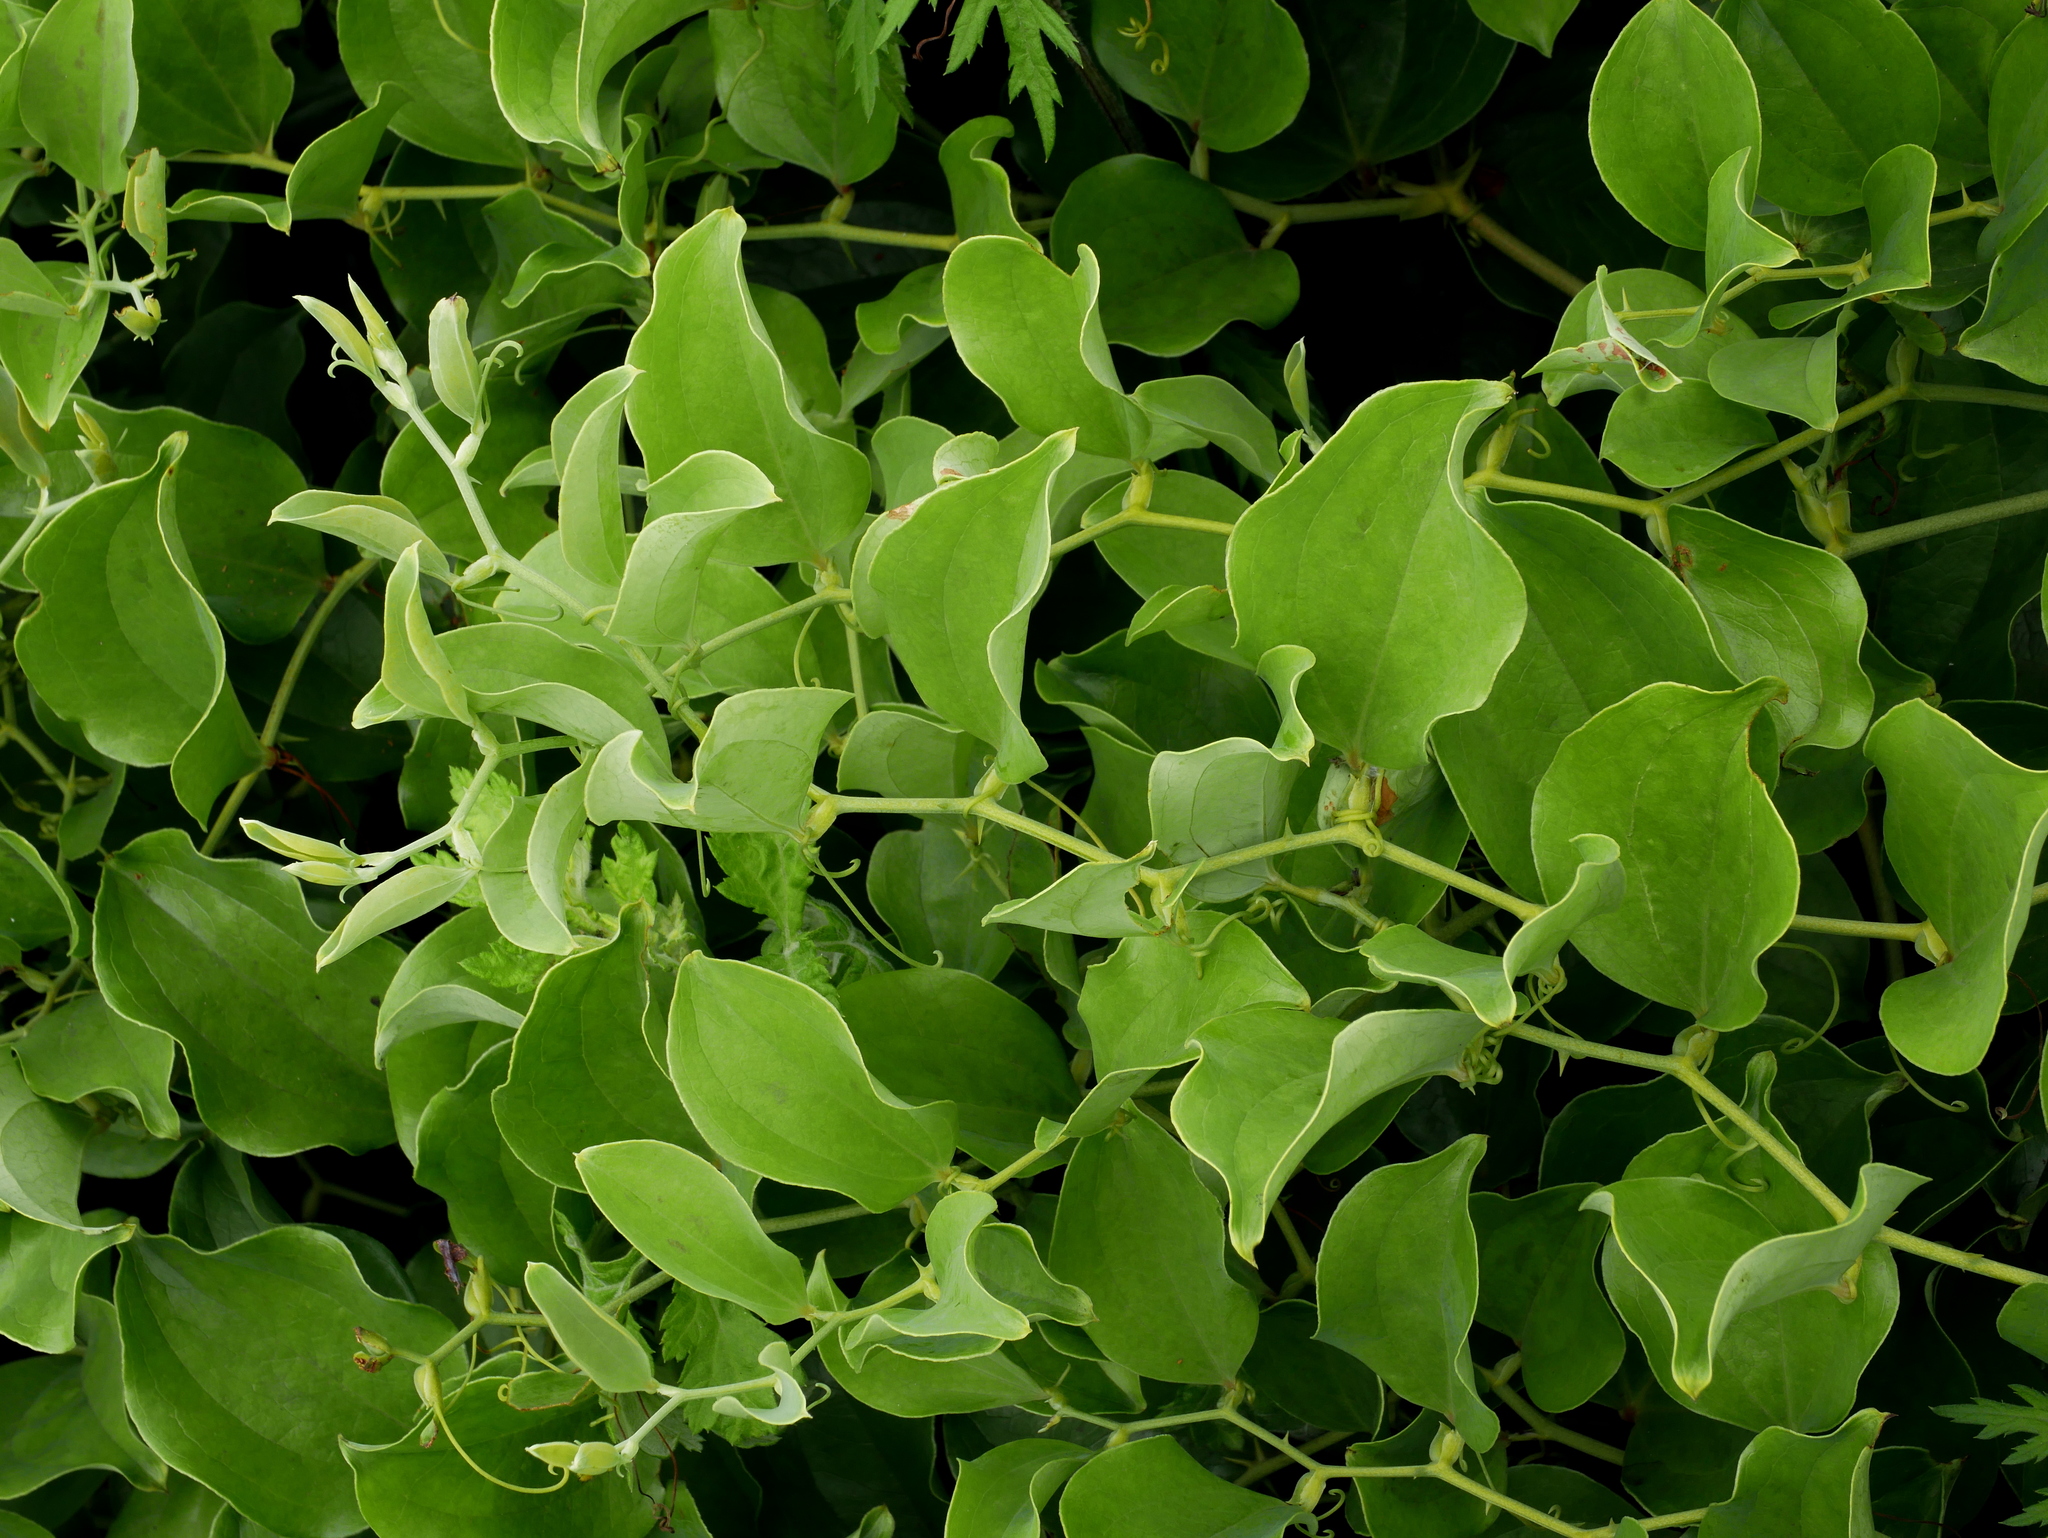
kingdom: Plantae
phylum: Tracheophyta
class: Liliopsida
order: Liliales
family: Smilacaceae
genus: Smilax
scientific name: Smilax china
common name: Chinaroot
